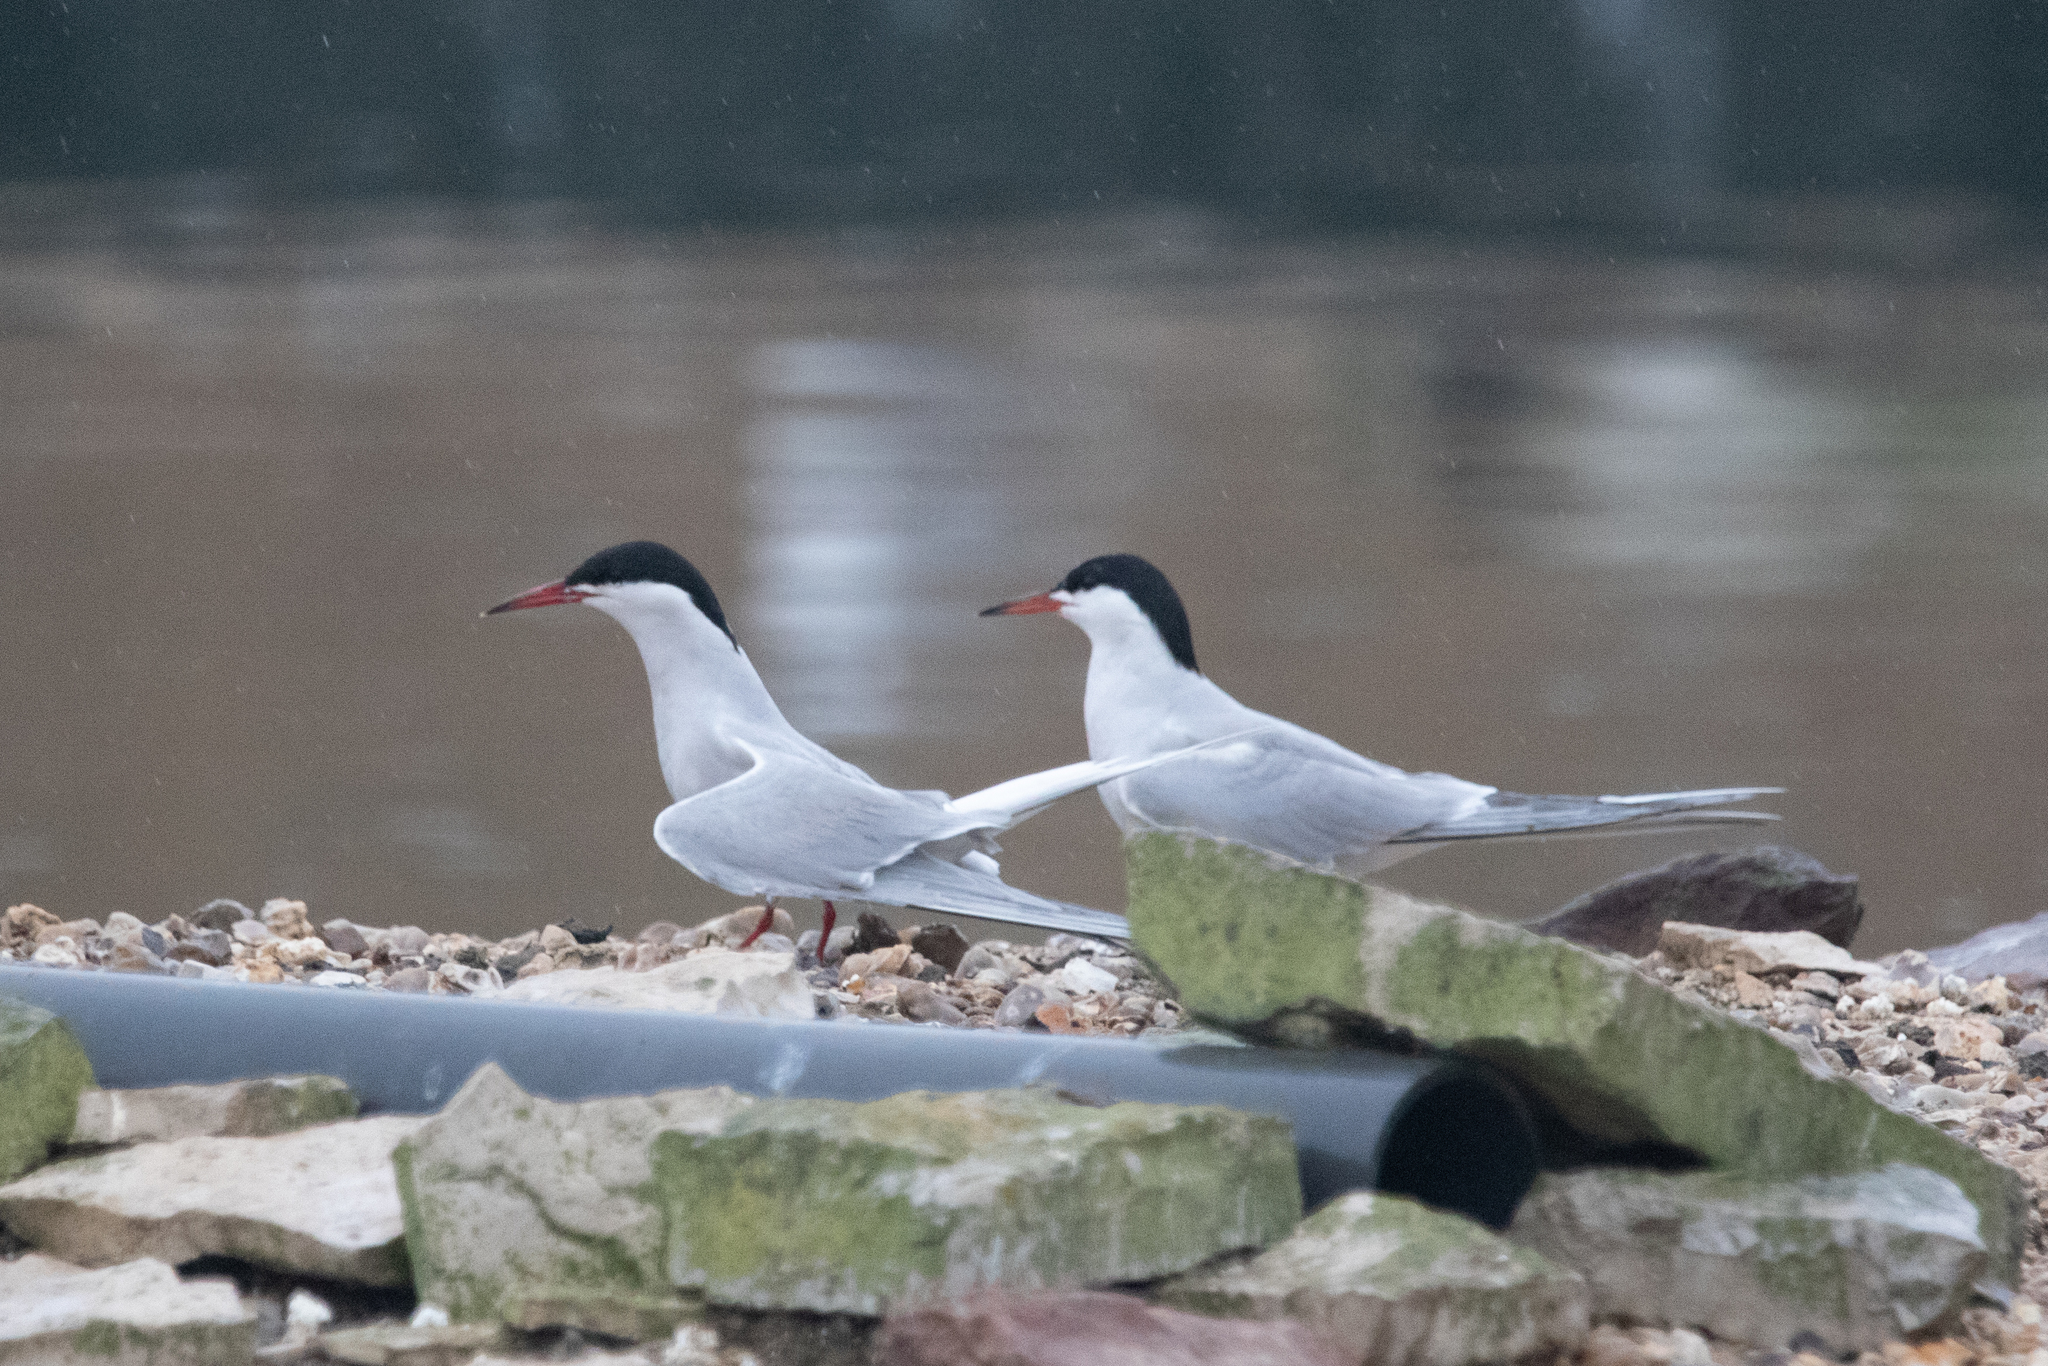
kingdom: Animalia
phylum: Chordata
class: Aves
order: Charadriiformes
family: Laridae
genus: Sterna
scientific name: Sterna hirundo
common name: Common tern
